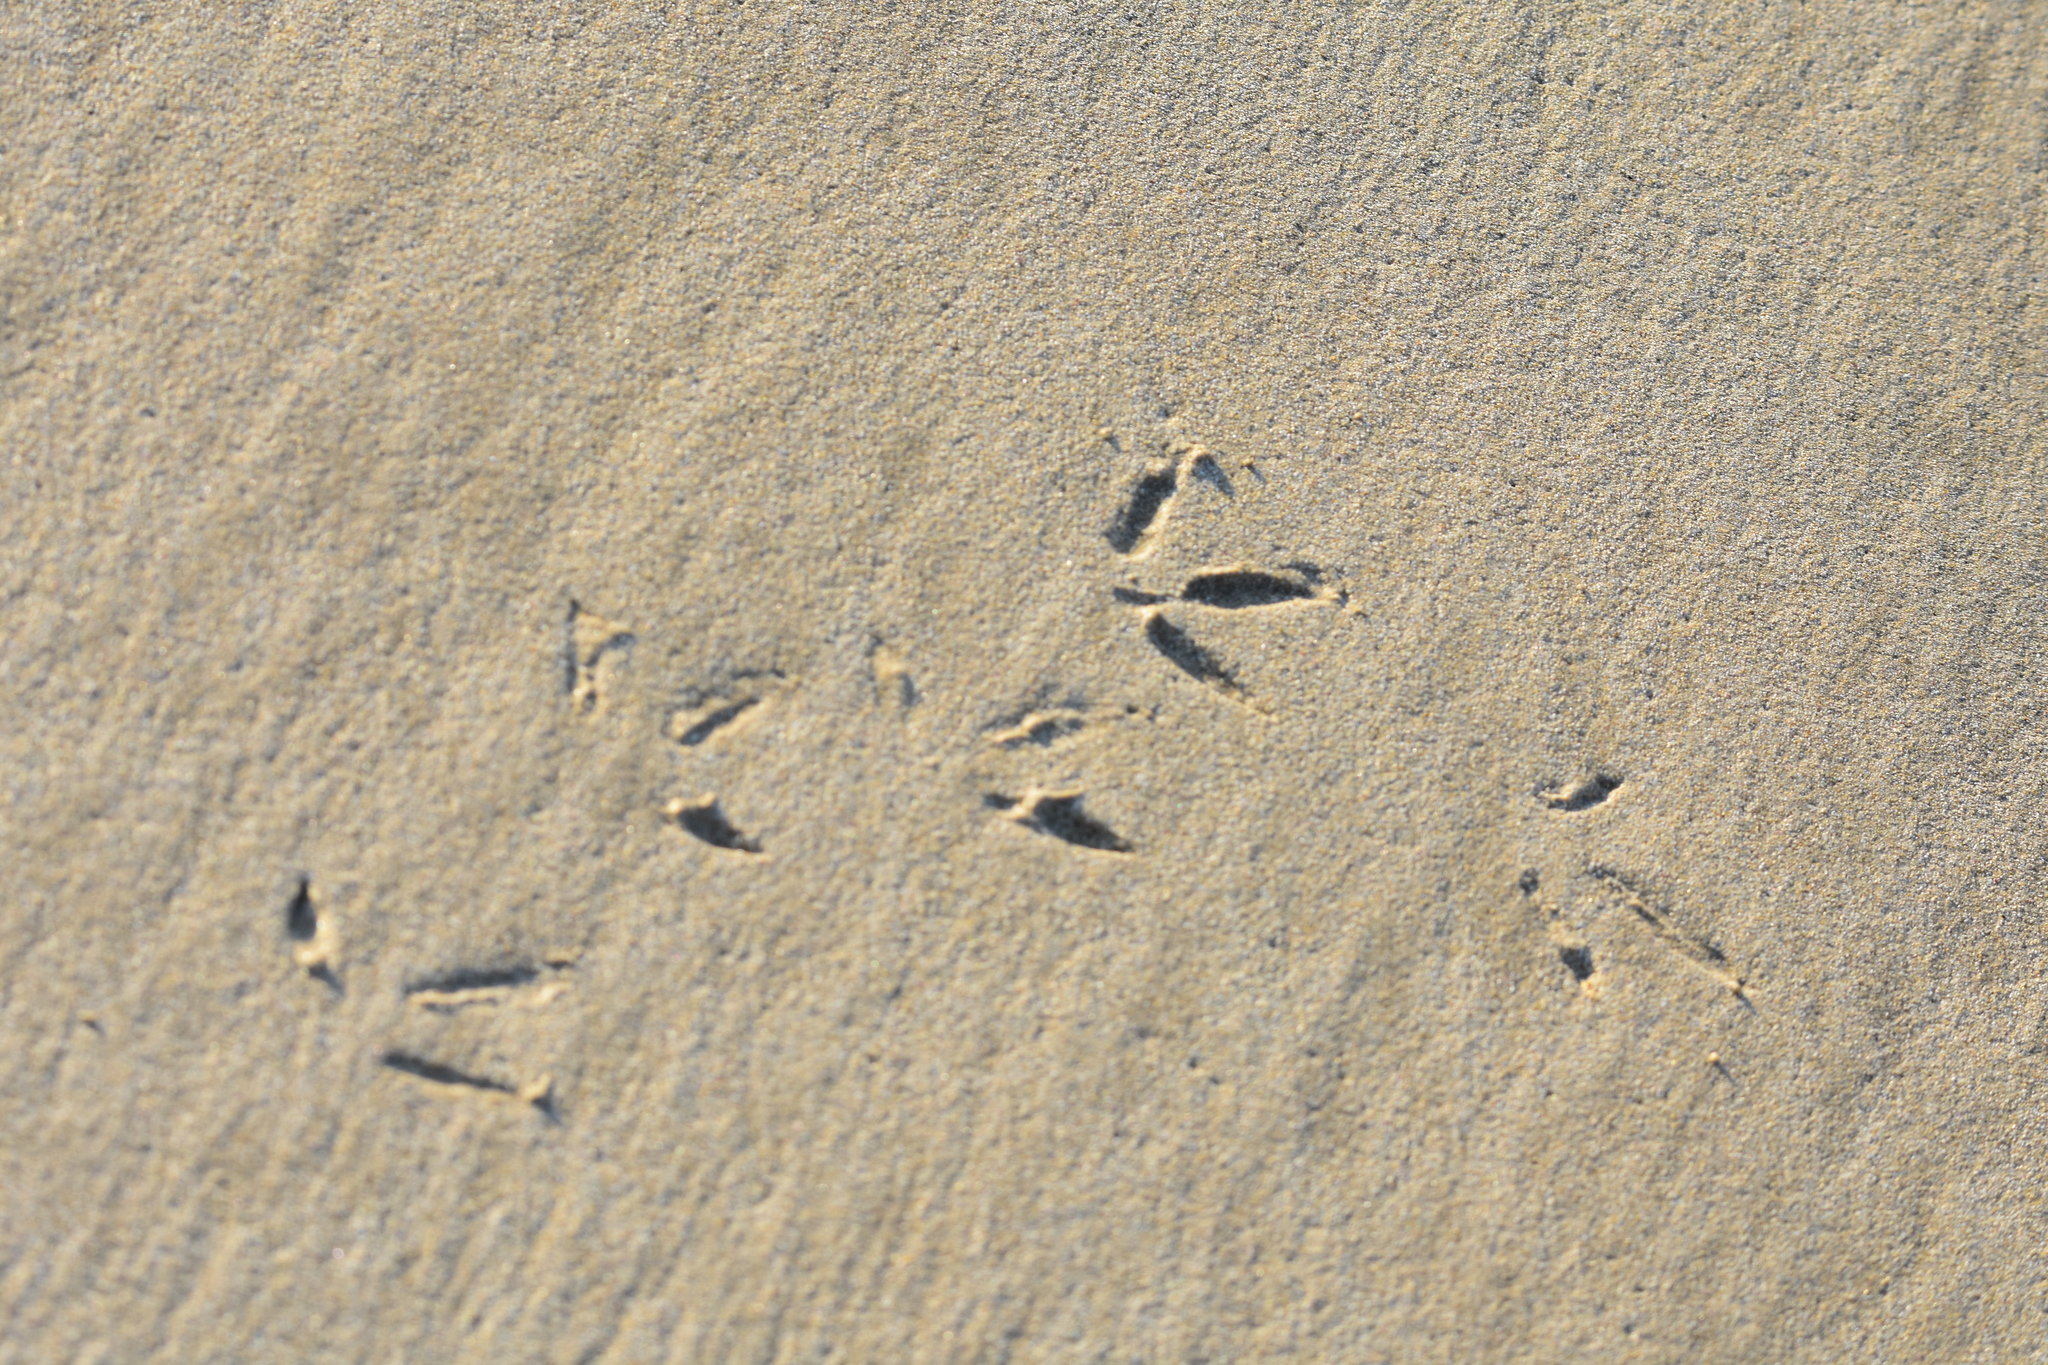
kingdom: Animalia
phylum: Chordata
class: Aves
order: Charadriiformes
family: Haematopodidae
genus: Haematopus
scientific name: Haematopus unicolor
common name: Variable oystercatcher
